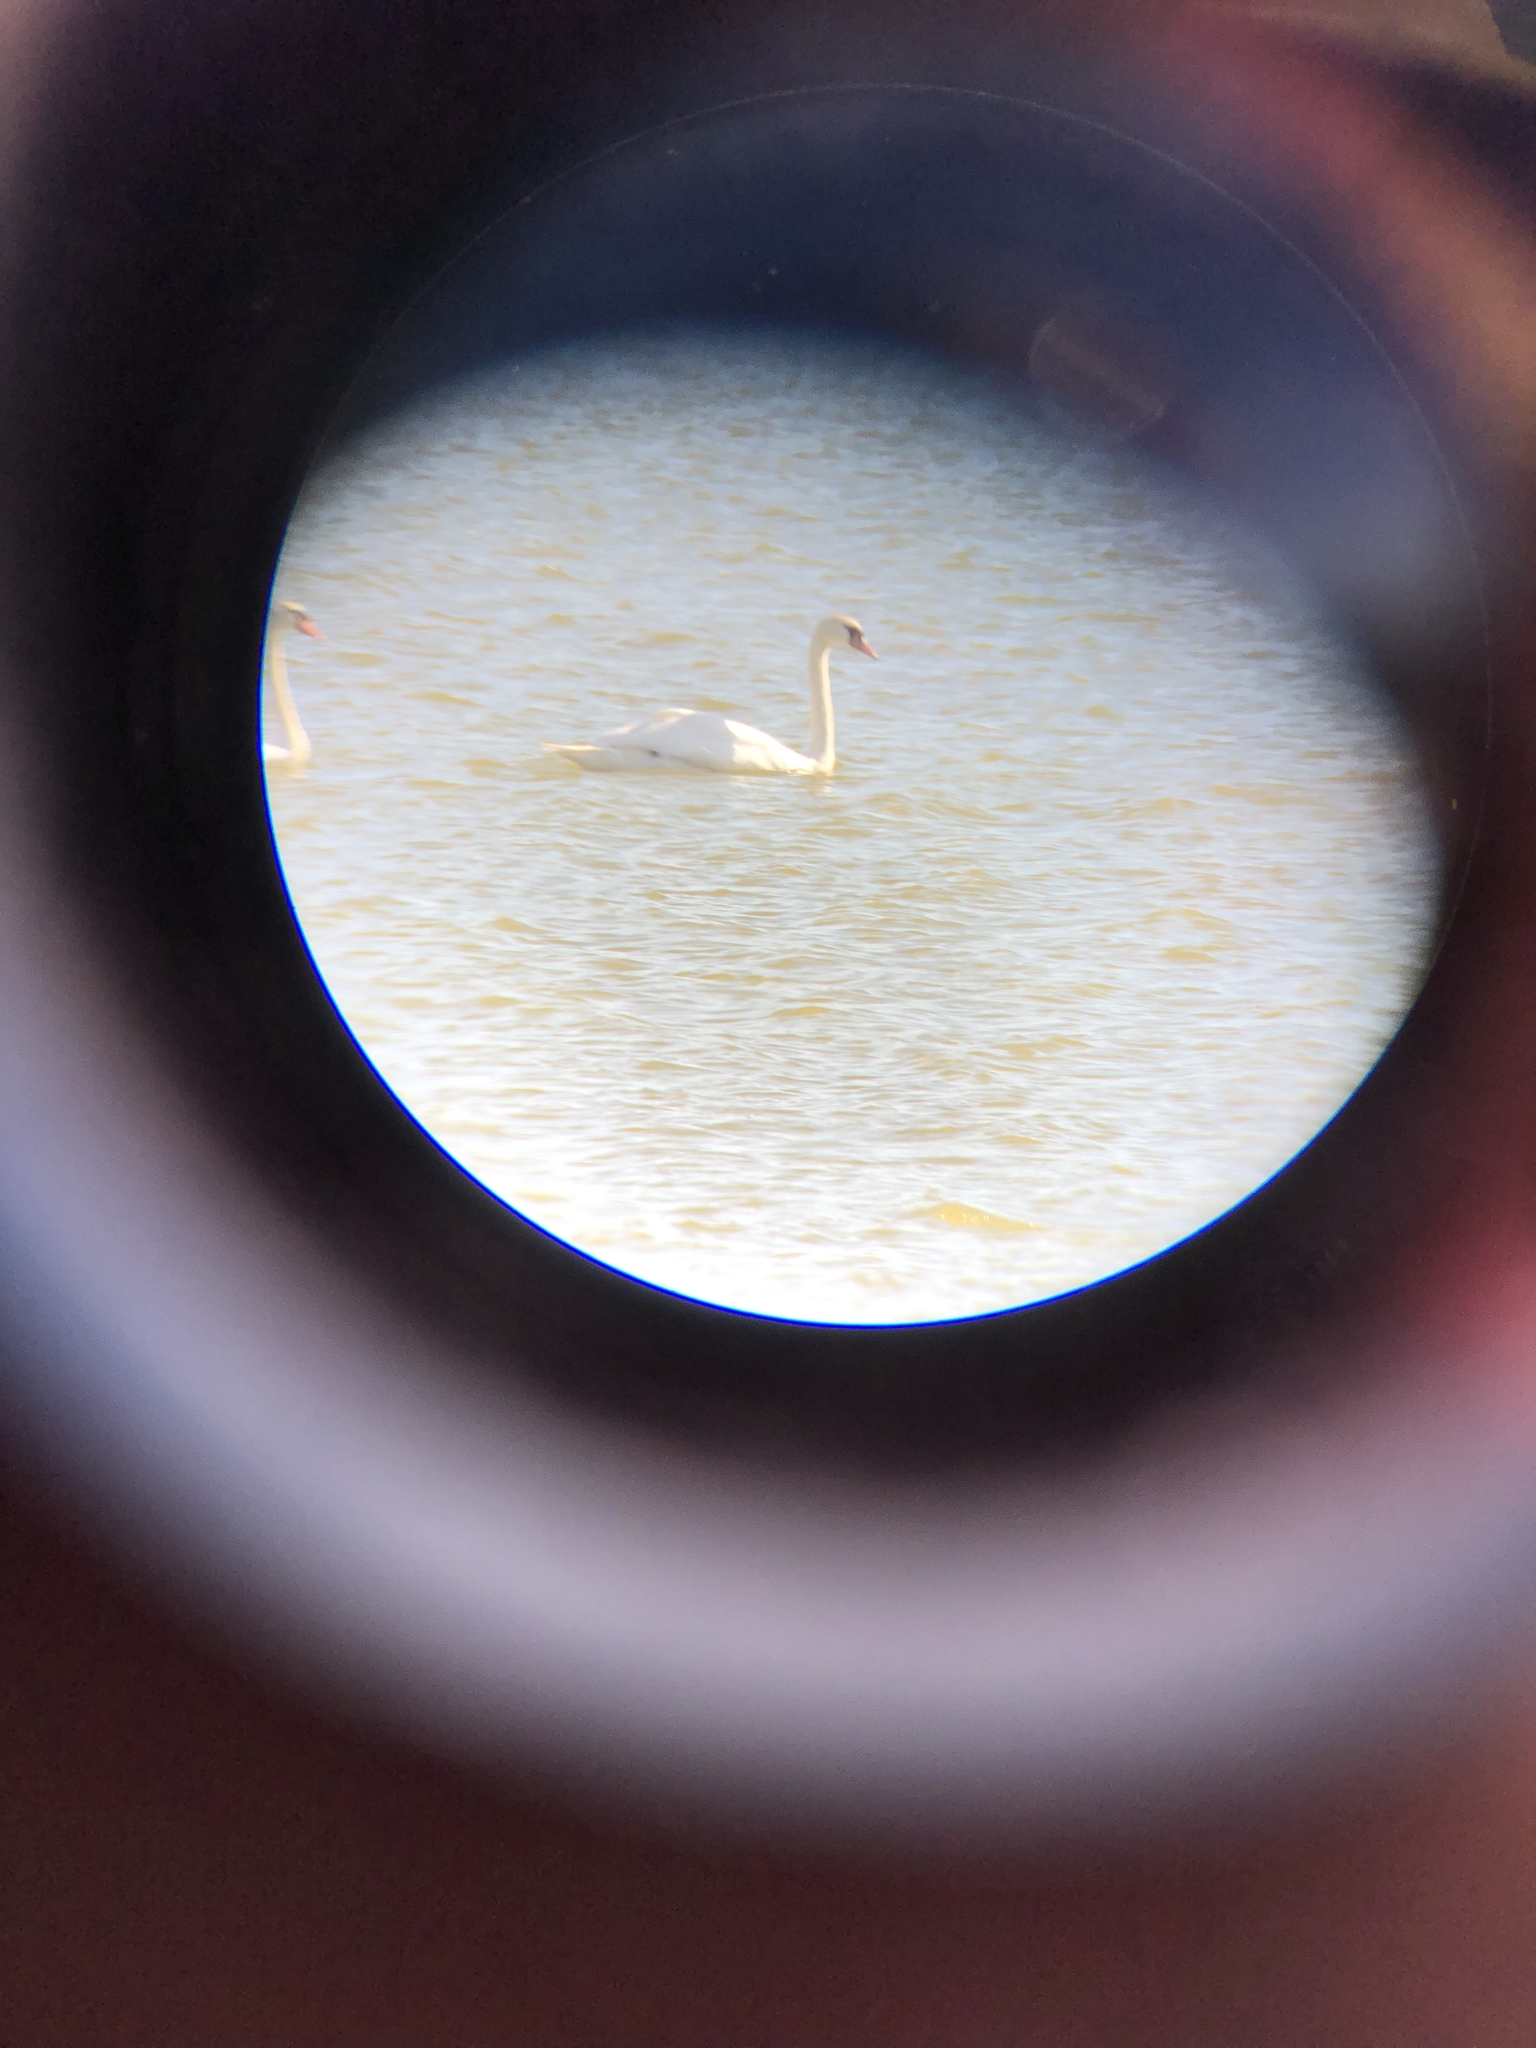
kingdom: Animalia
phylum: Chordata
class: Aves
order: Anseriformes
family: Anatidae
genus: Cygnus
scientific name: Cygnus olor
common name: Mute swan
